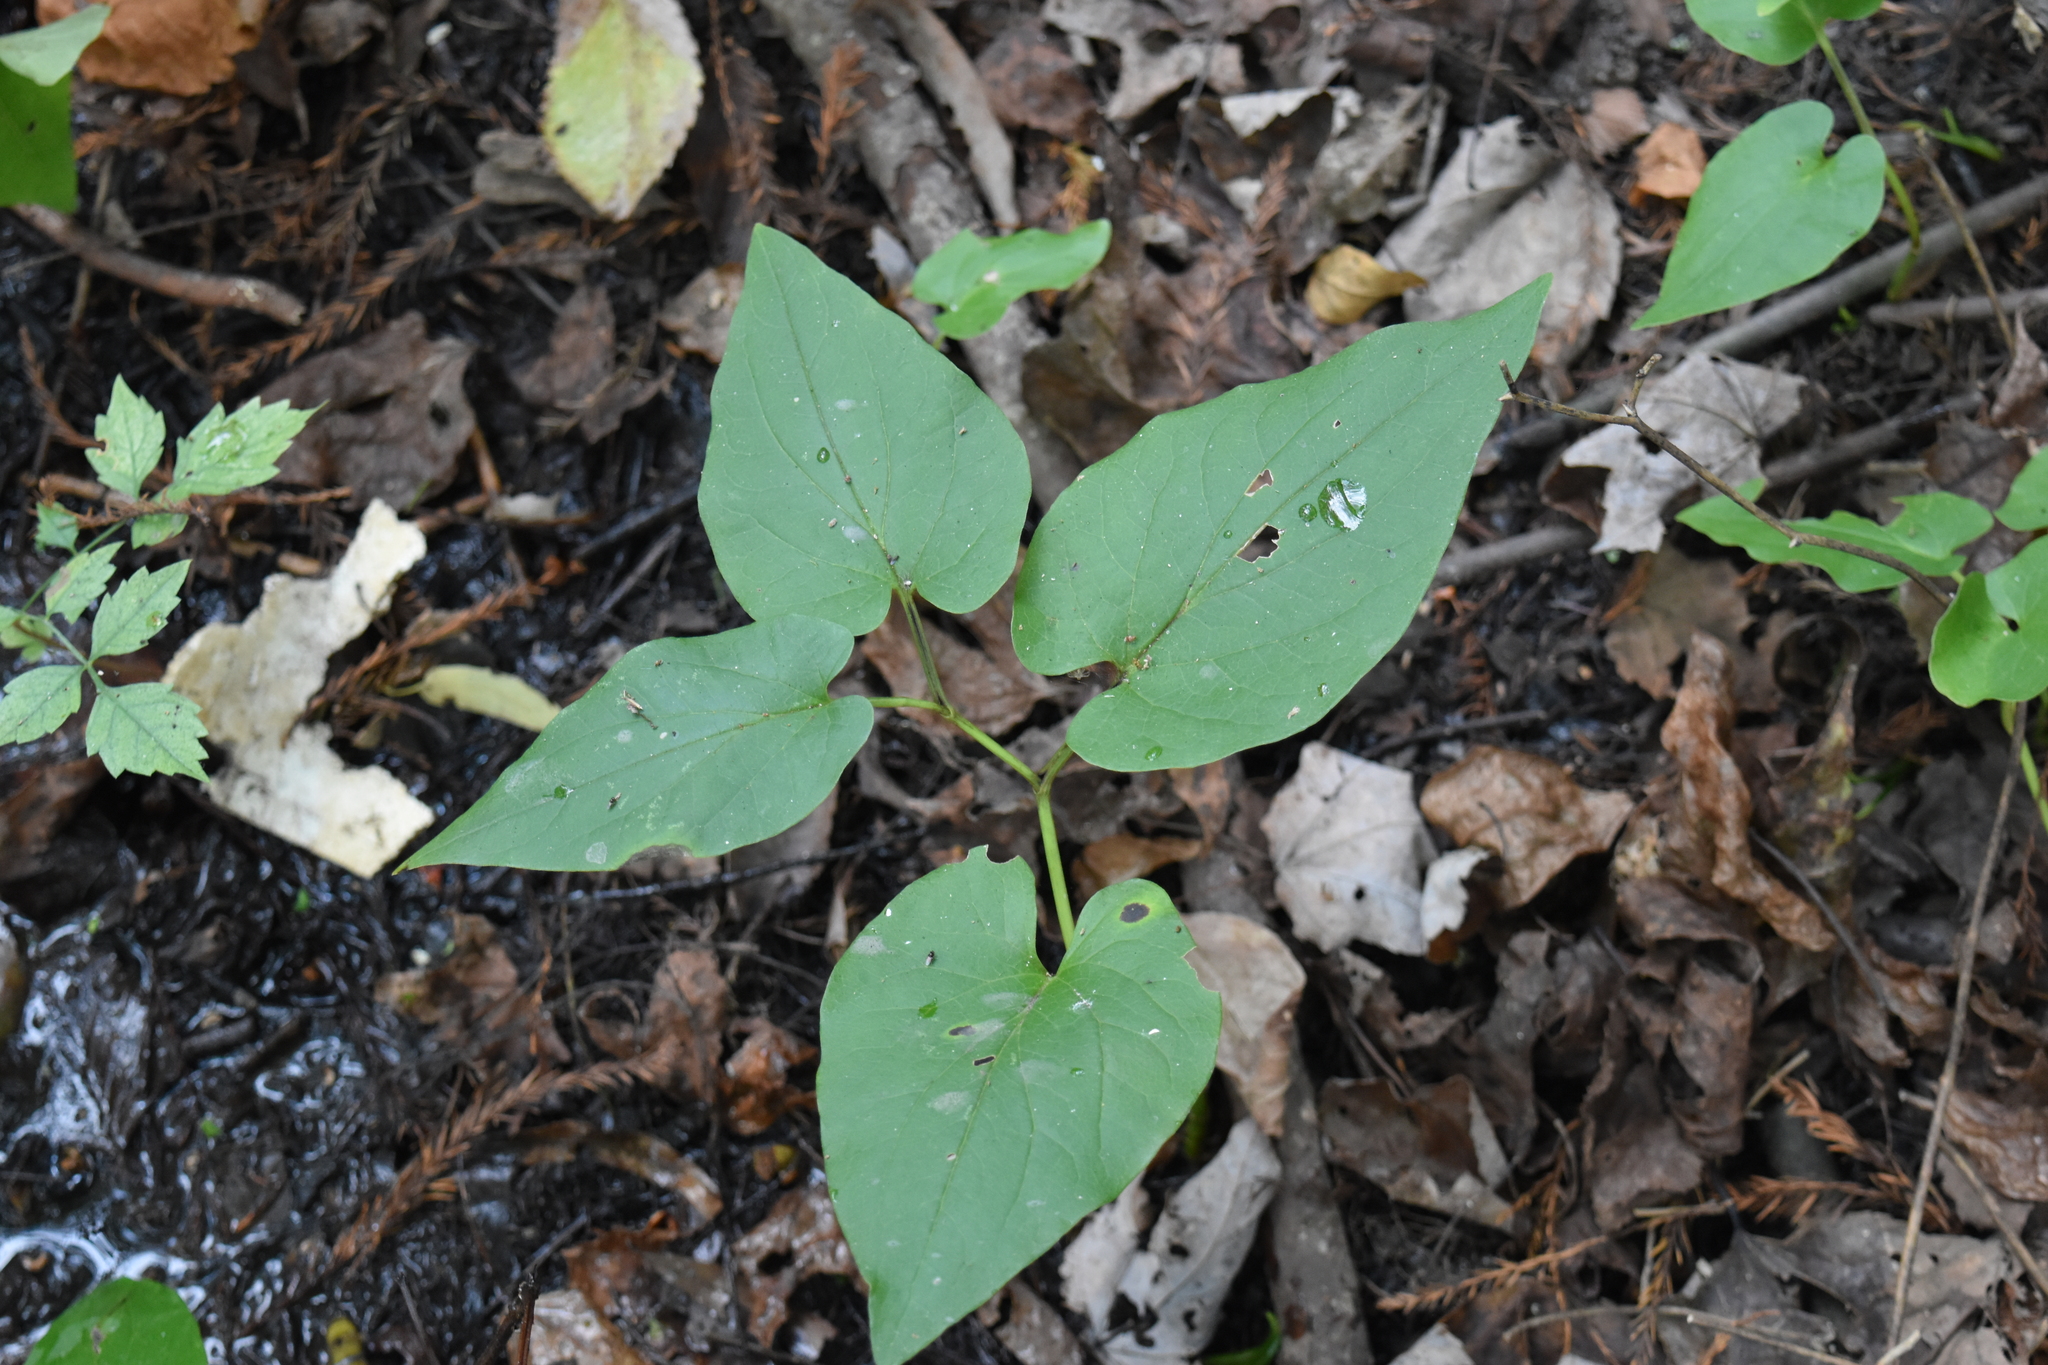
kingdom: Plantae
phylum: Tracheophyta
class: Magnoliopsida
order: Piperales
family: Saururaceae
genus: Saururus
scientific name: Saururus cernuus
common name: Lizard's-tail
